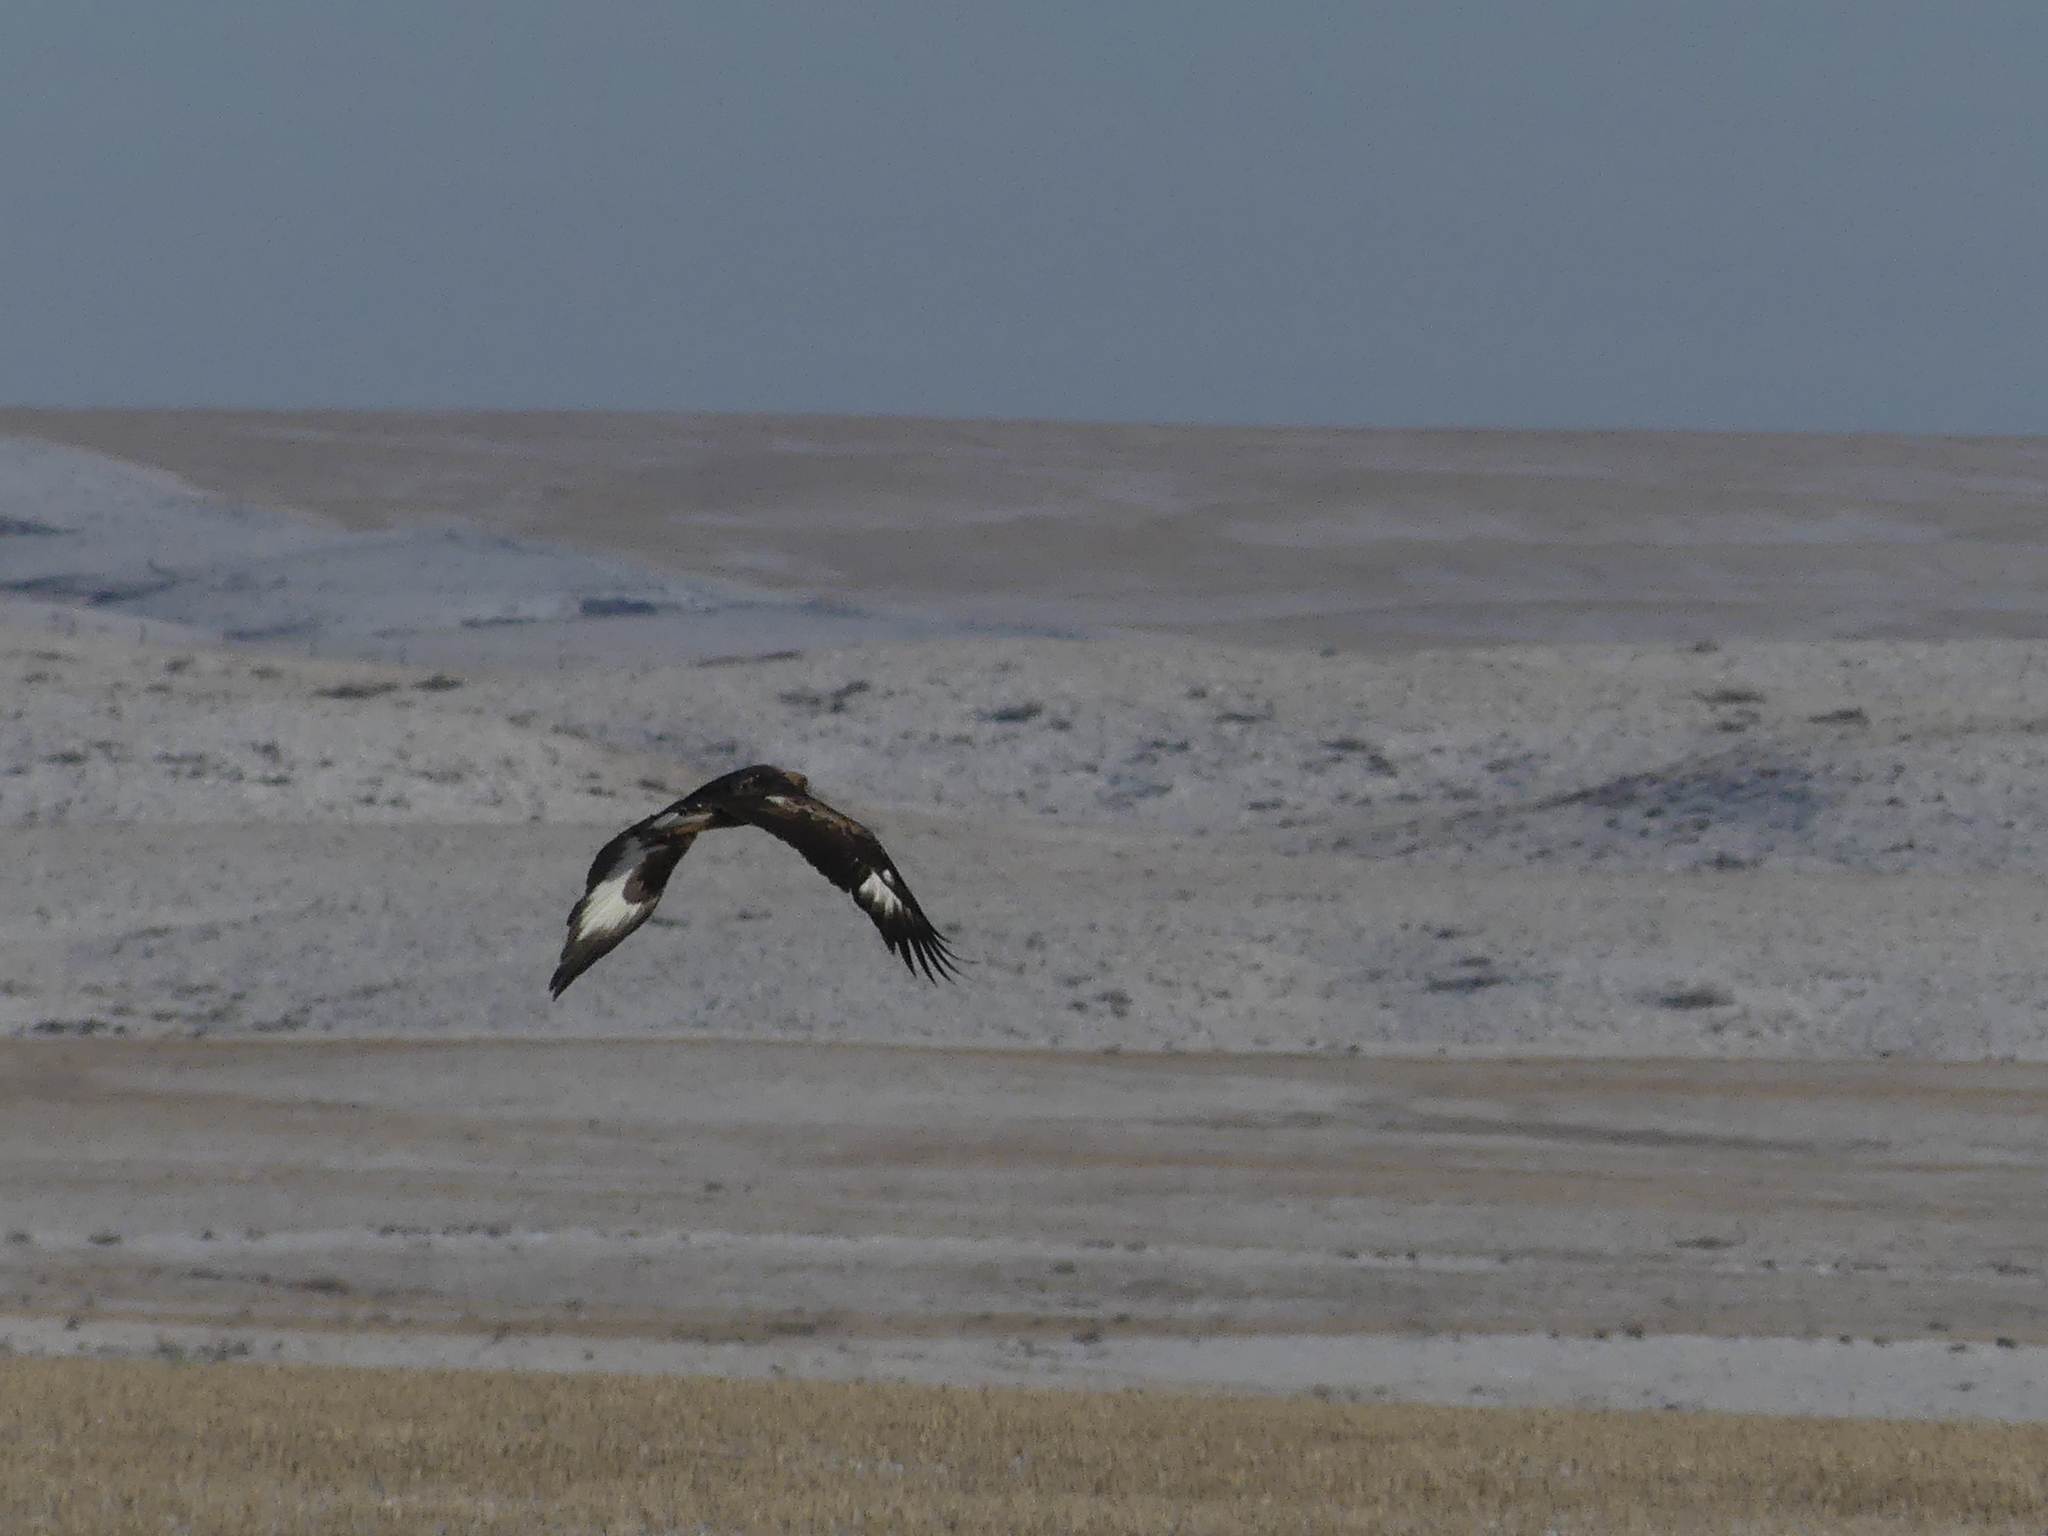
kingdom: Animalia
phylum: Chordata
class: Aves
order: Accipitriformes
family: Accipitridae
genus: Aquila
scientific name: Aquila chrysaetos
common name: Golden eagle
